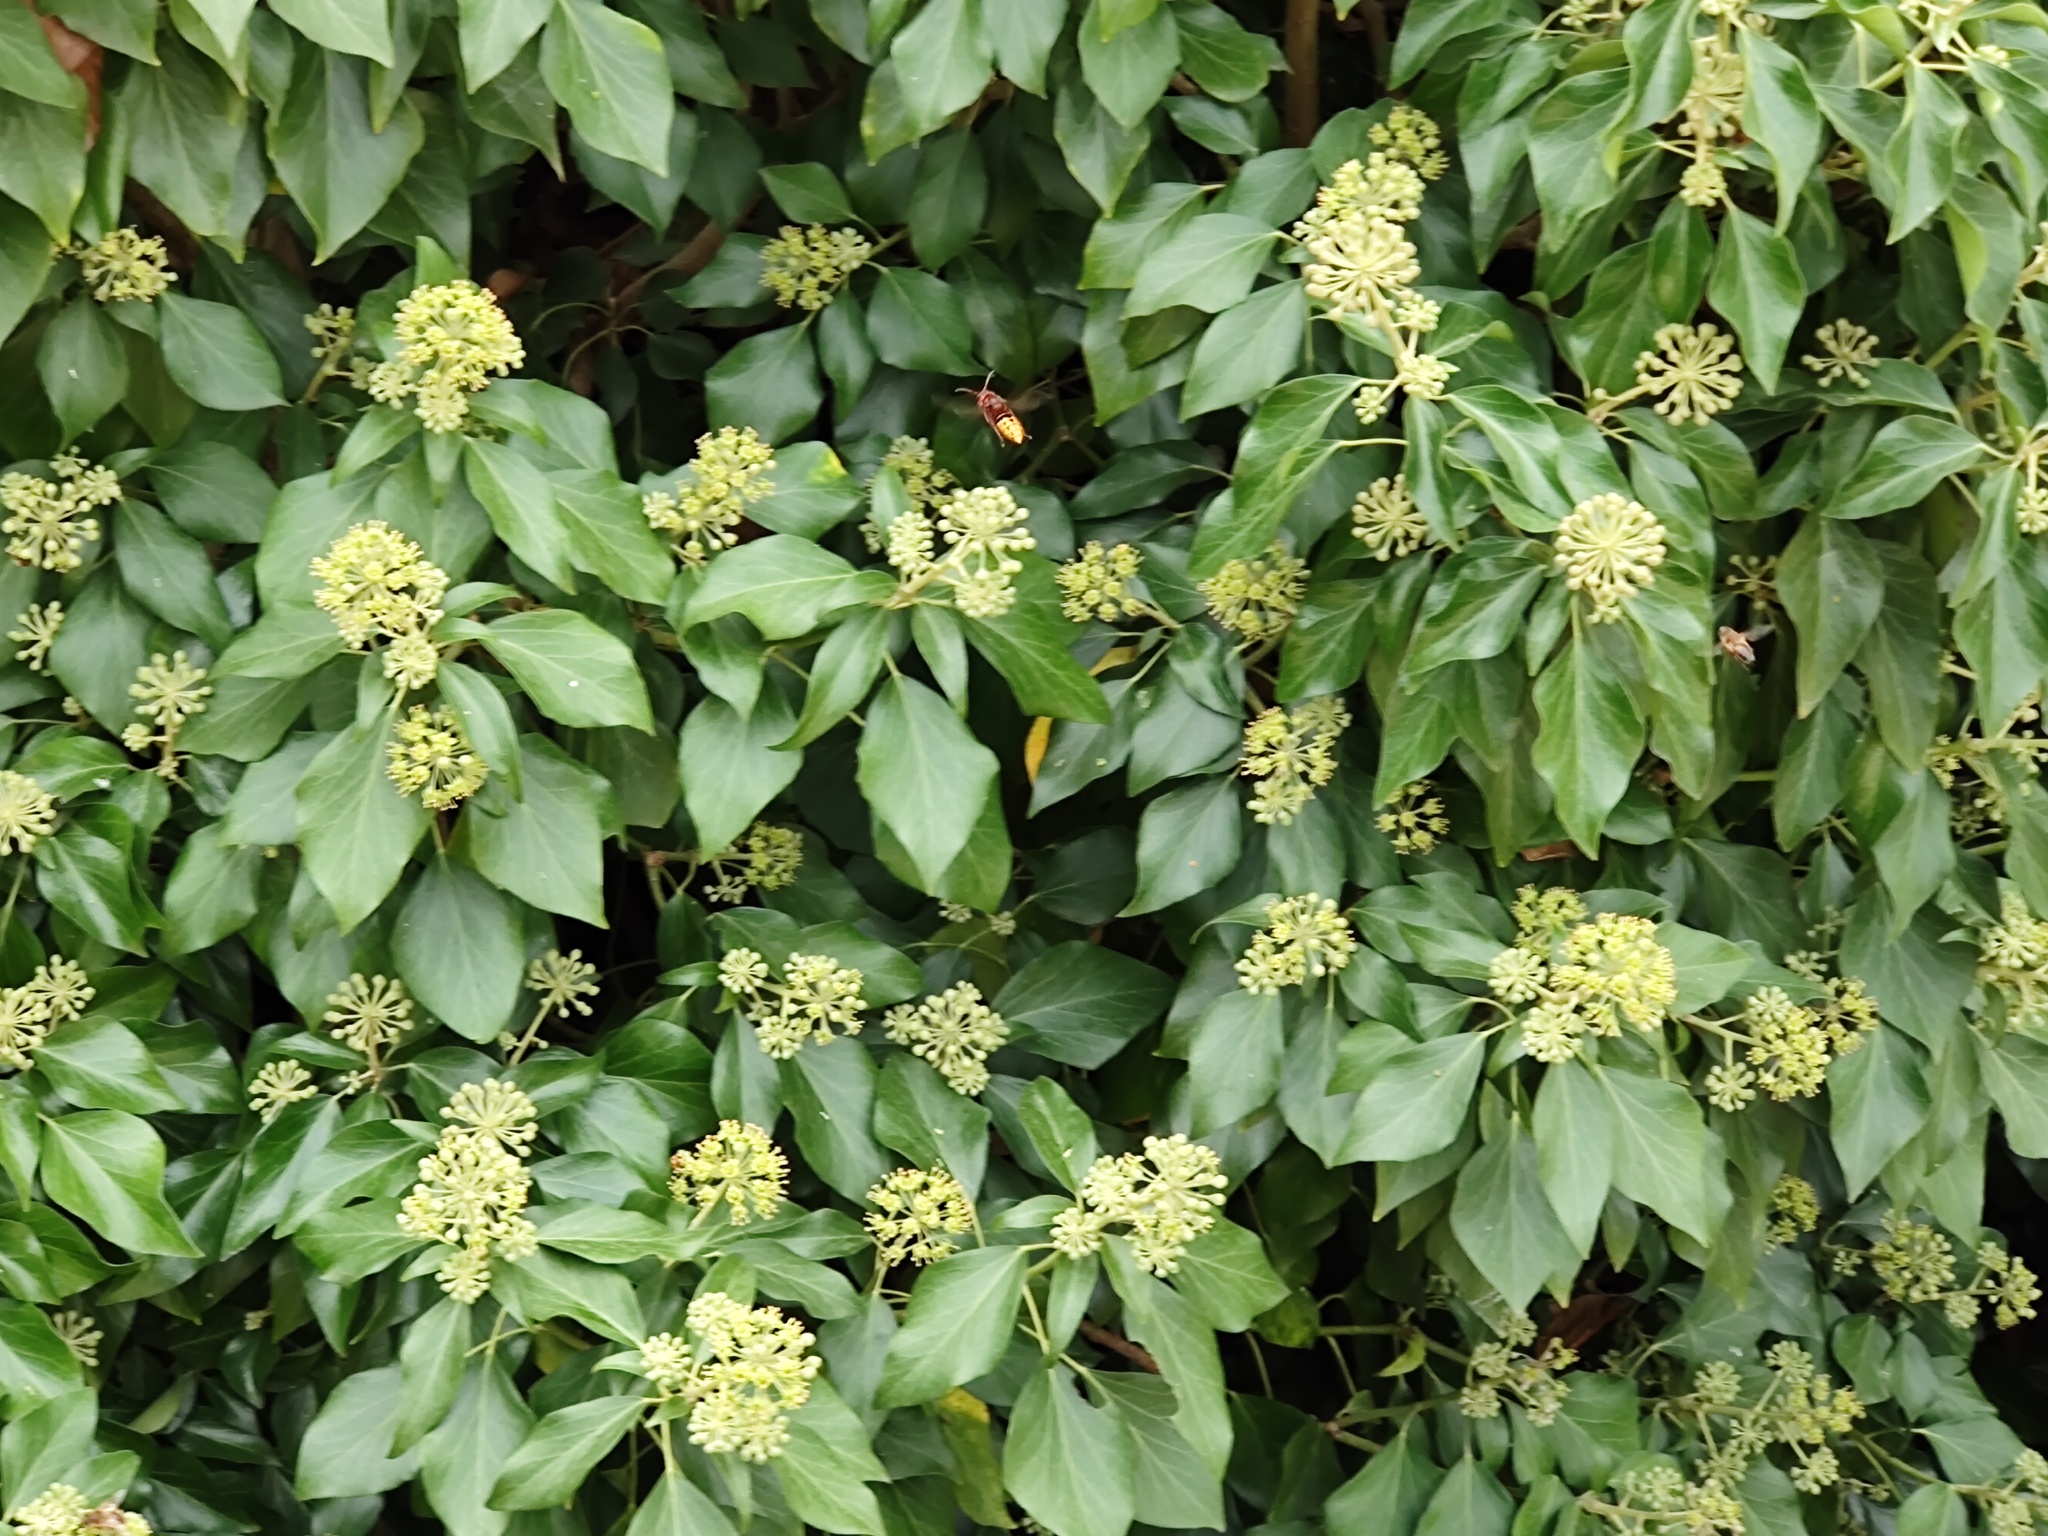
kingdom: Animalia
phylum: Arthropoda
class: Insecta
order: Hymenoptera
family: Vespidae
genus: Vespa
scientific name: Vespa crabro
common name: Hornet
